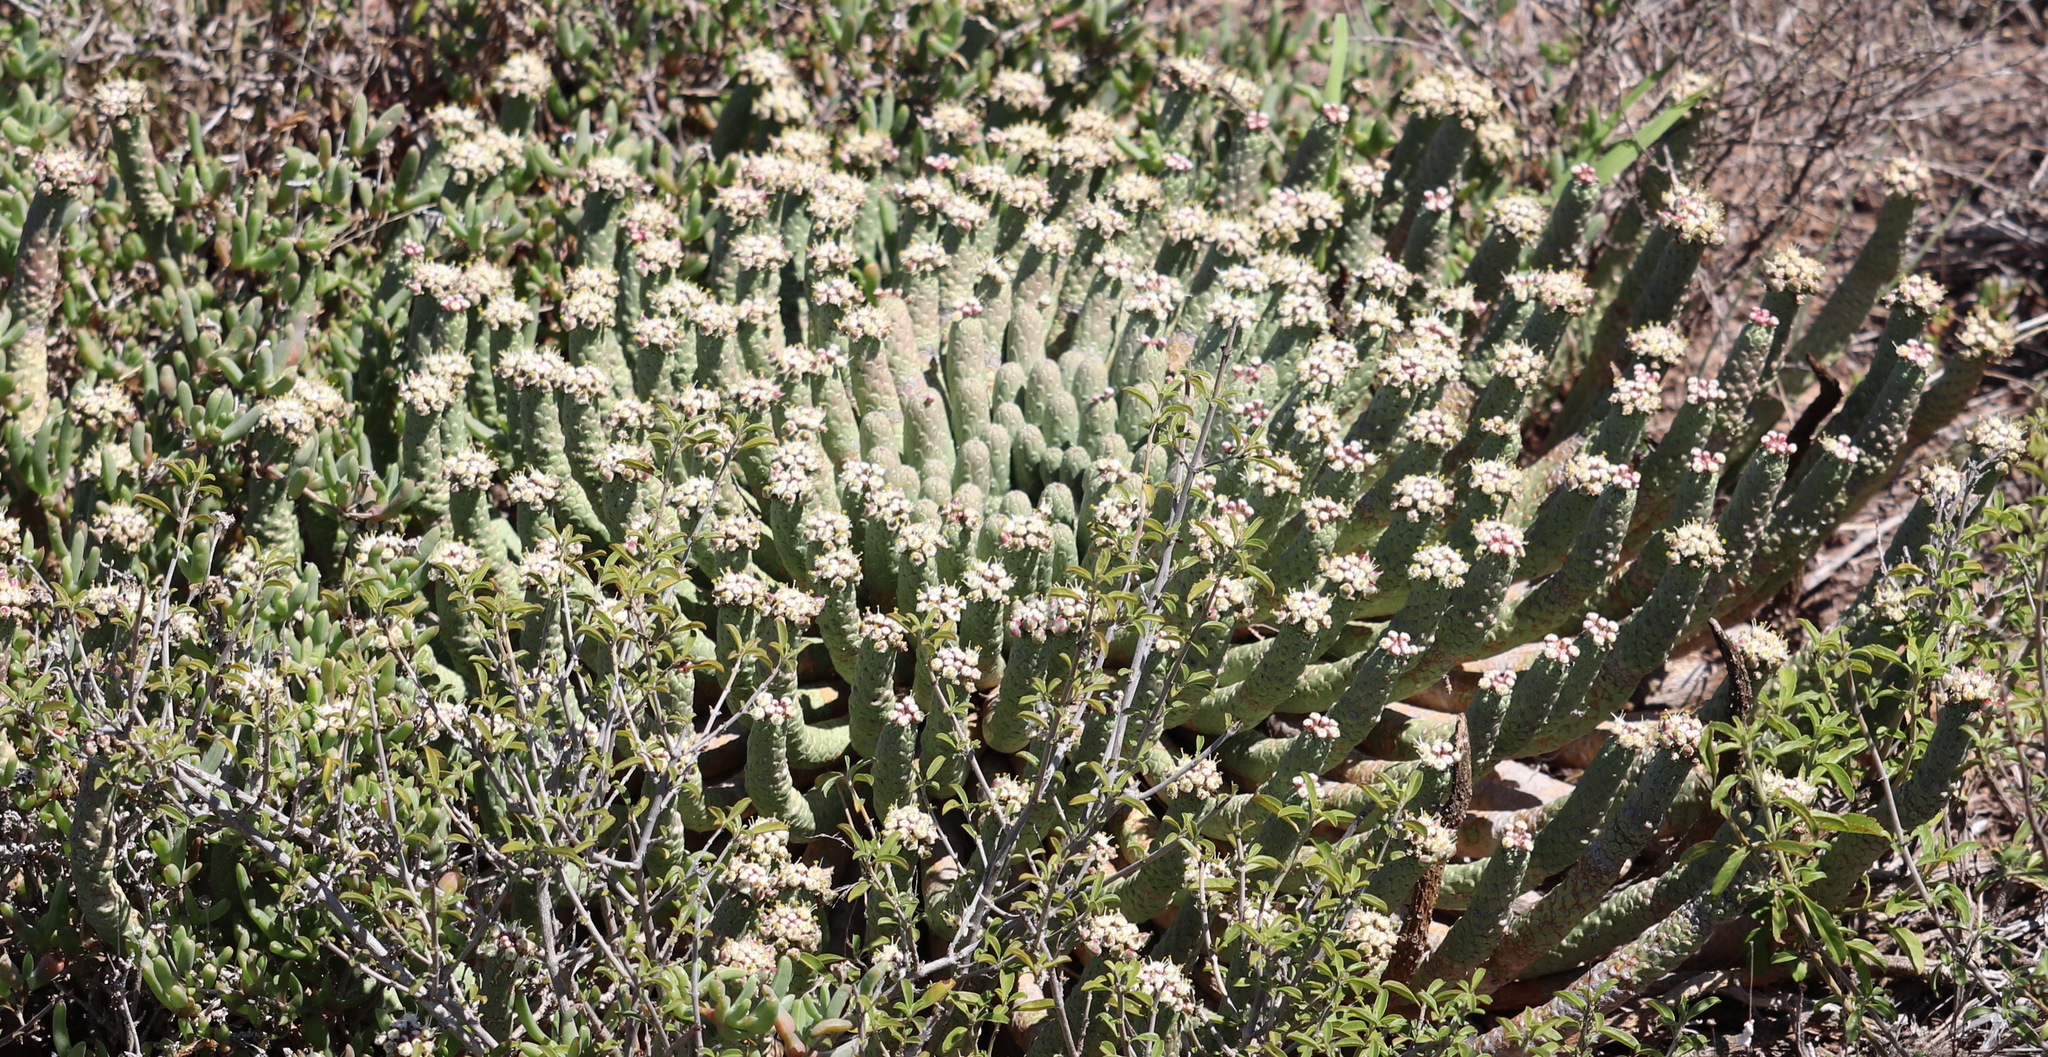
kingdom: Plantae
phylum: Tracheophyta
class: Magnoliopsida
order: Malpighiales
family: Euphorbiaceae
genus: Euphorbia
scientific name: Euphorbia esculenta
